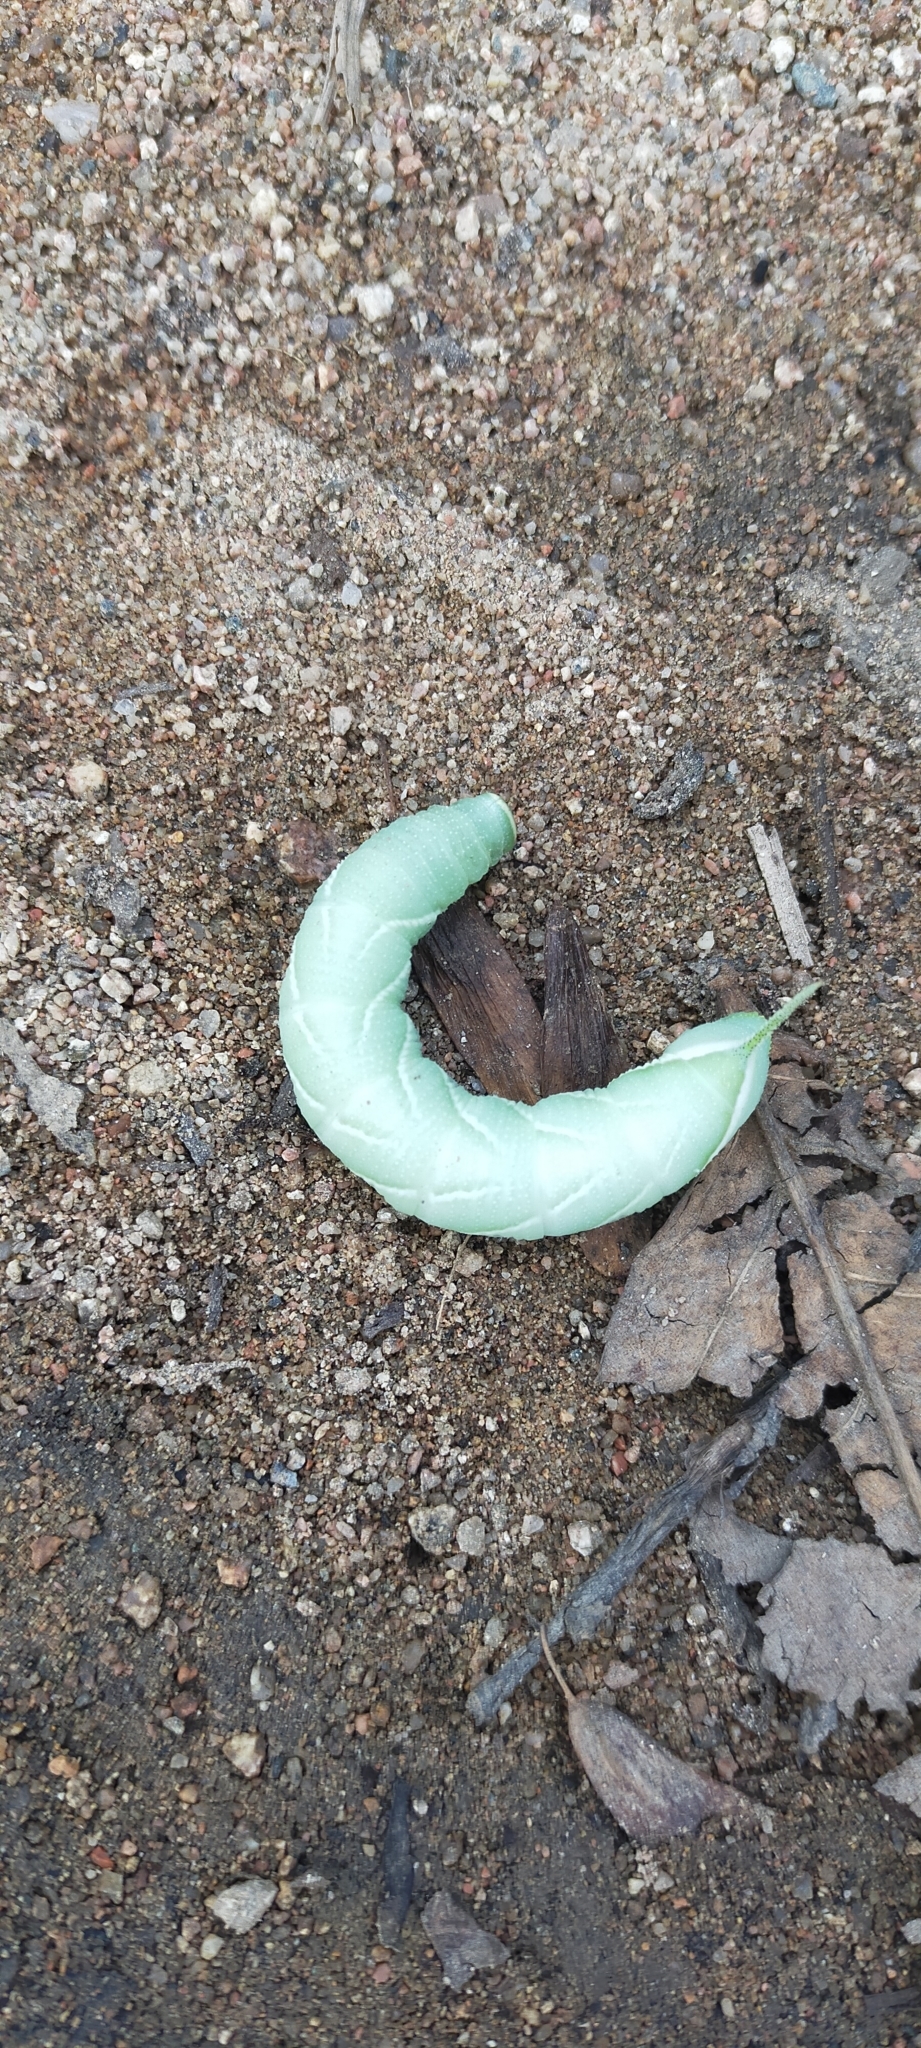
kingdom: Animalia
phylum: Arthropoda
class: Insecta
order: Lepidoptera
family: Sphingidae
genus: Smerinthus
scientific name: Smerinthus planus
